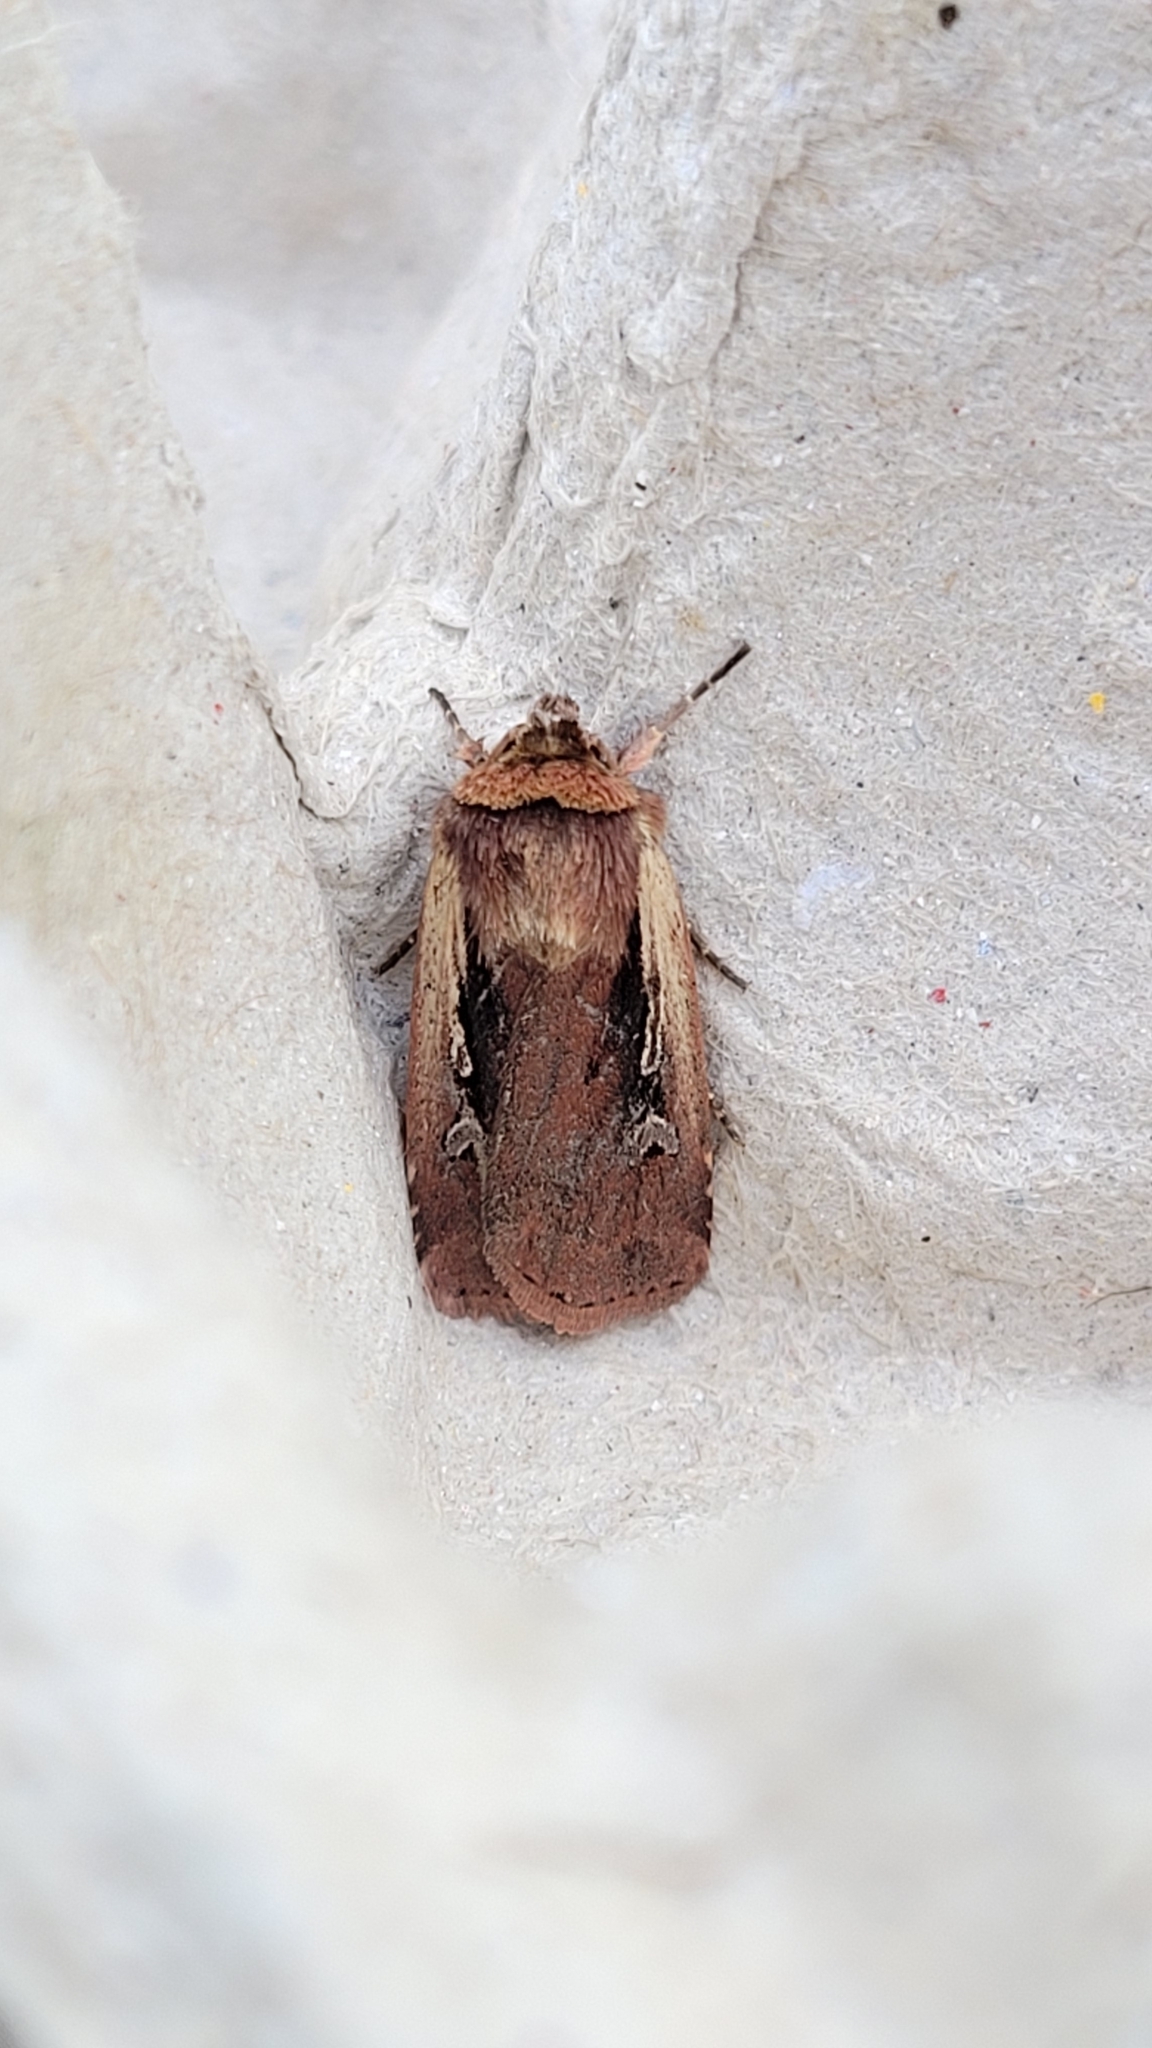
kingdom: Animalia
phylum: Arthropoda
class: Insecta
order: Lepidoptera
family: Noctuidae
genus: Ochropleura
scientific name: Ochropleura plecta
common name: Flame shoulder
